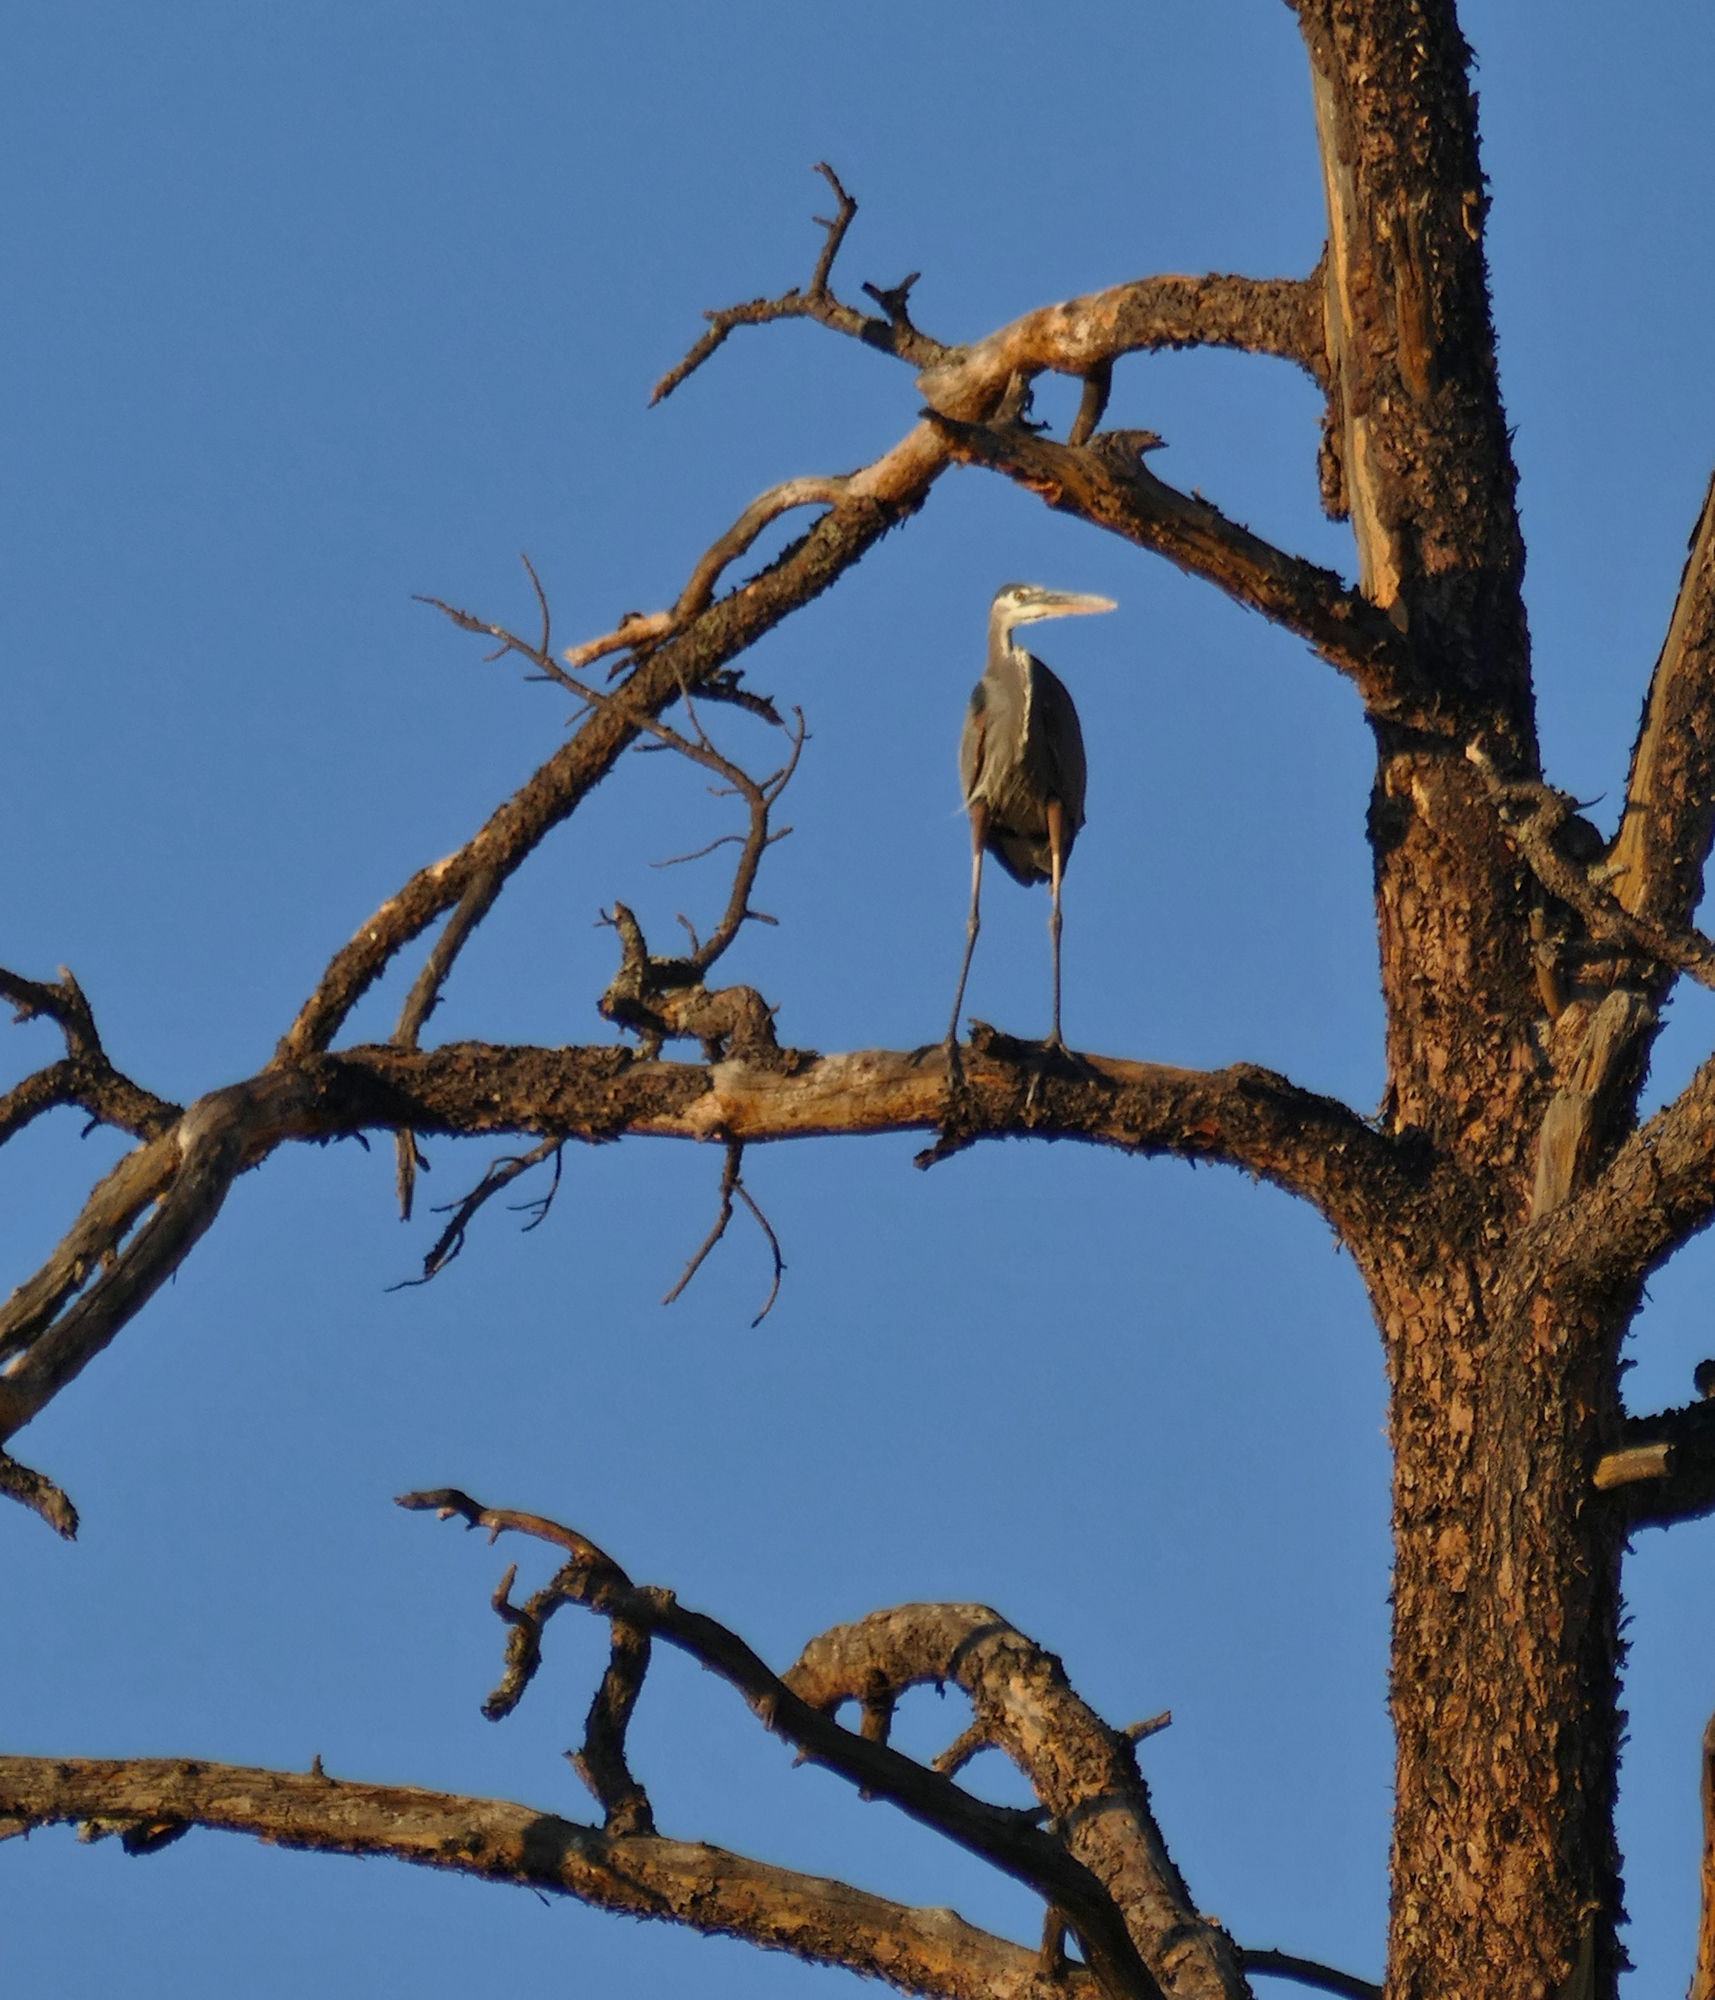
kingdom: Animalia
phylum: Chordata
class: Aves
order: Pelecaniformes
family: Ardeidae
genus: Ardea
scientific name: Ardea herodias
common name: Great blue heron
